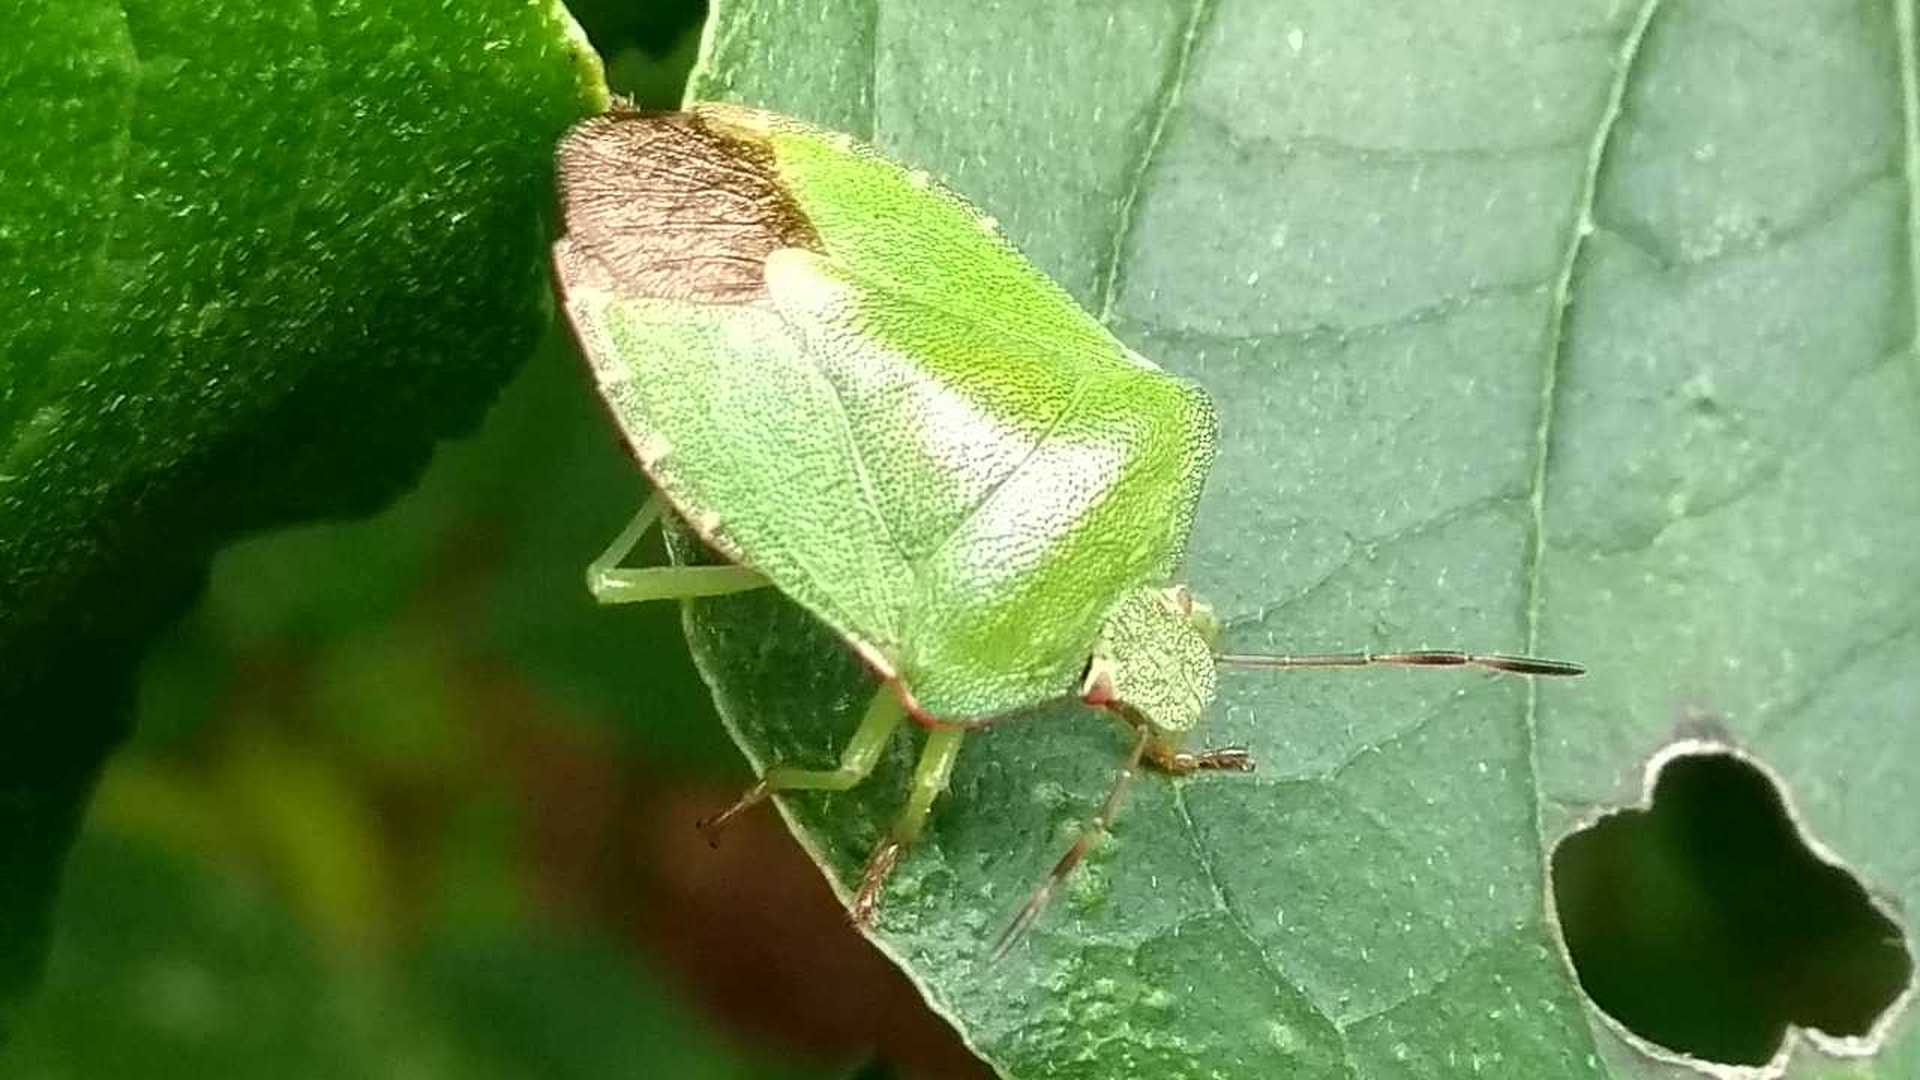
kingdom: Animalia
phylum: Arthropoda
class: Insecta
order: Hemiptera
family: Pentatomidae
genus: Palomena
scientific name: Palomena prasina
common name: Green shieldbug
